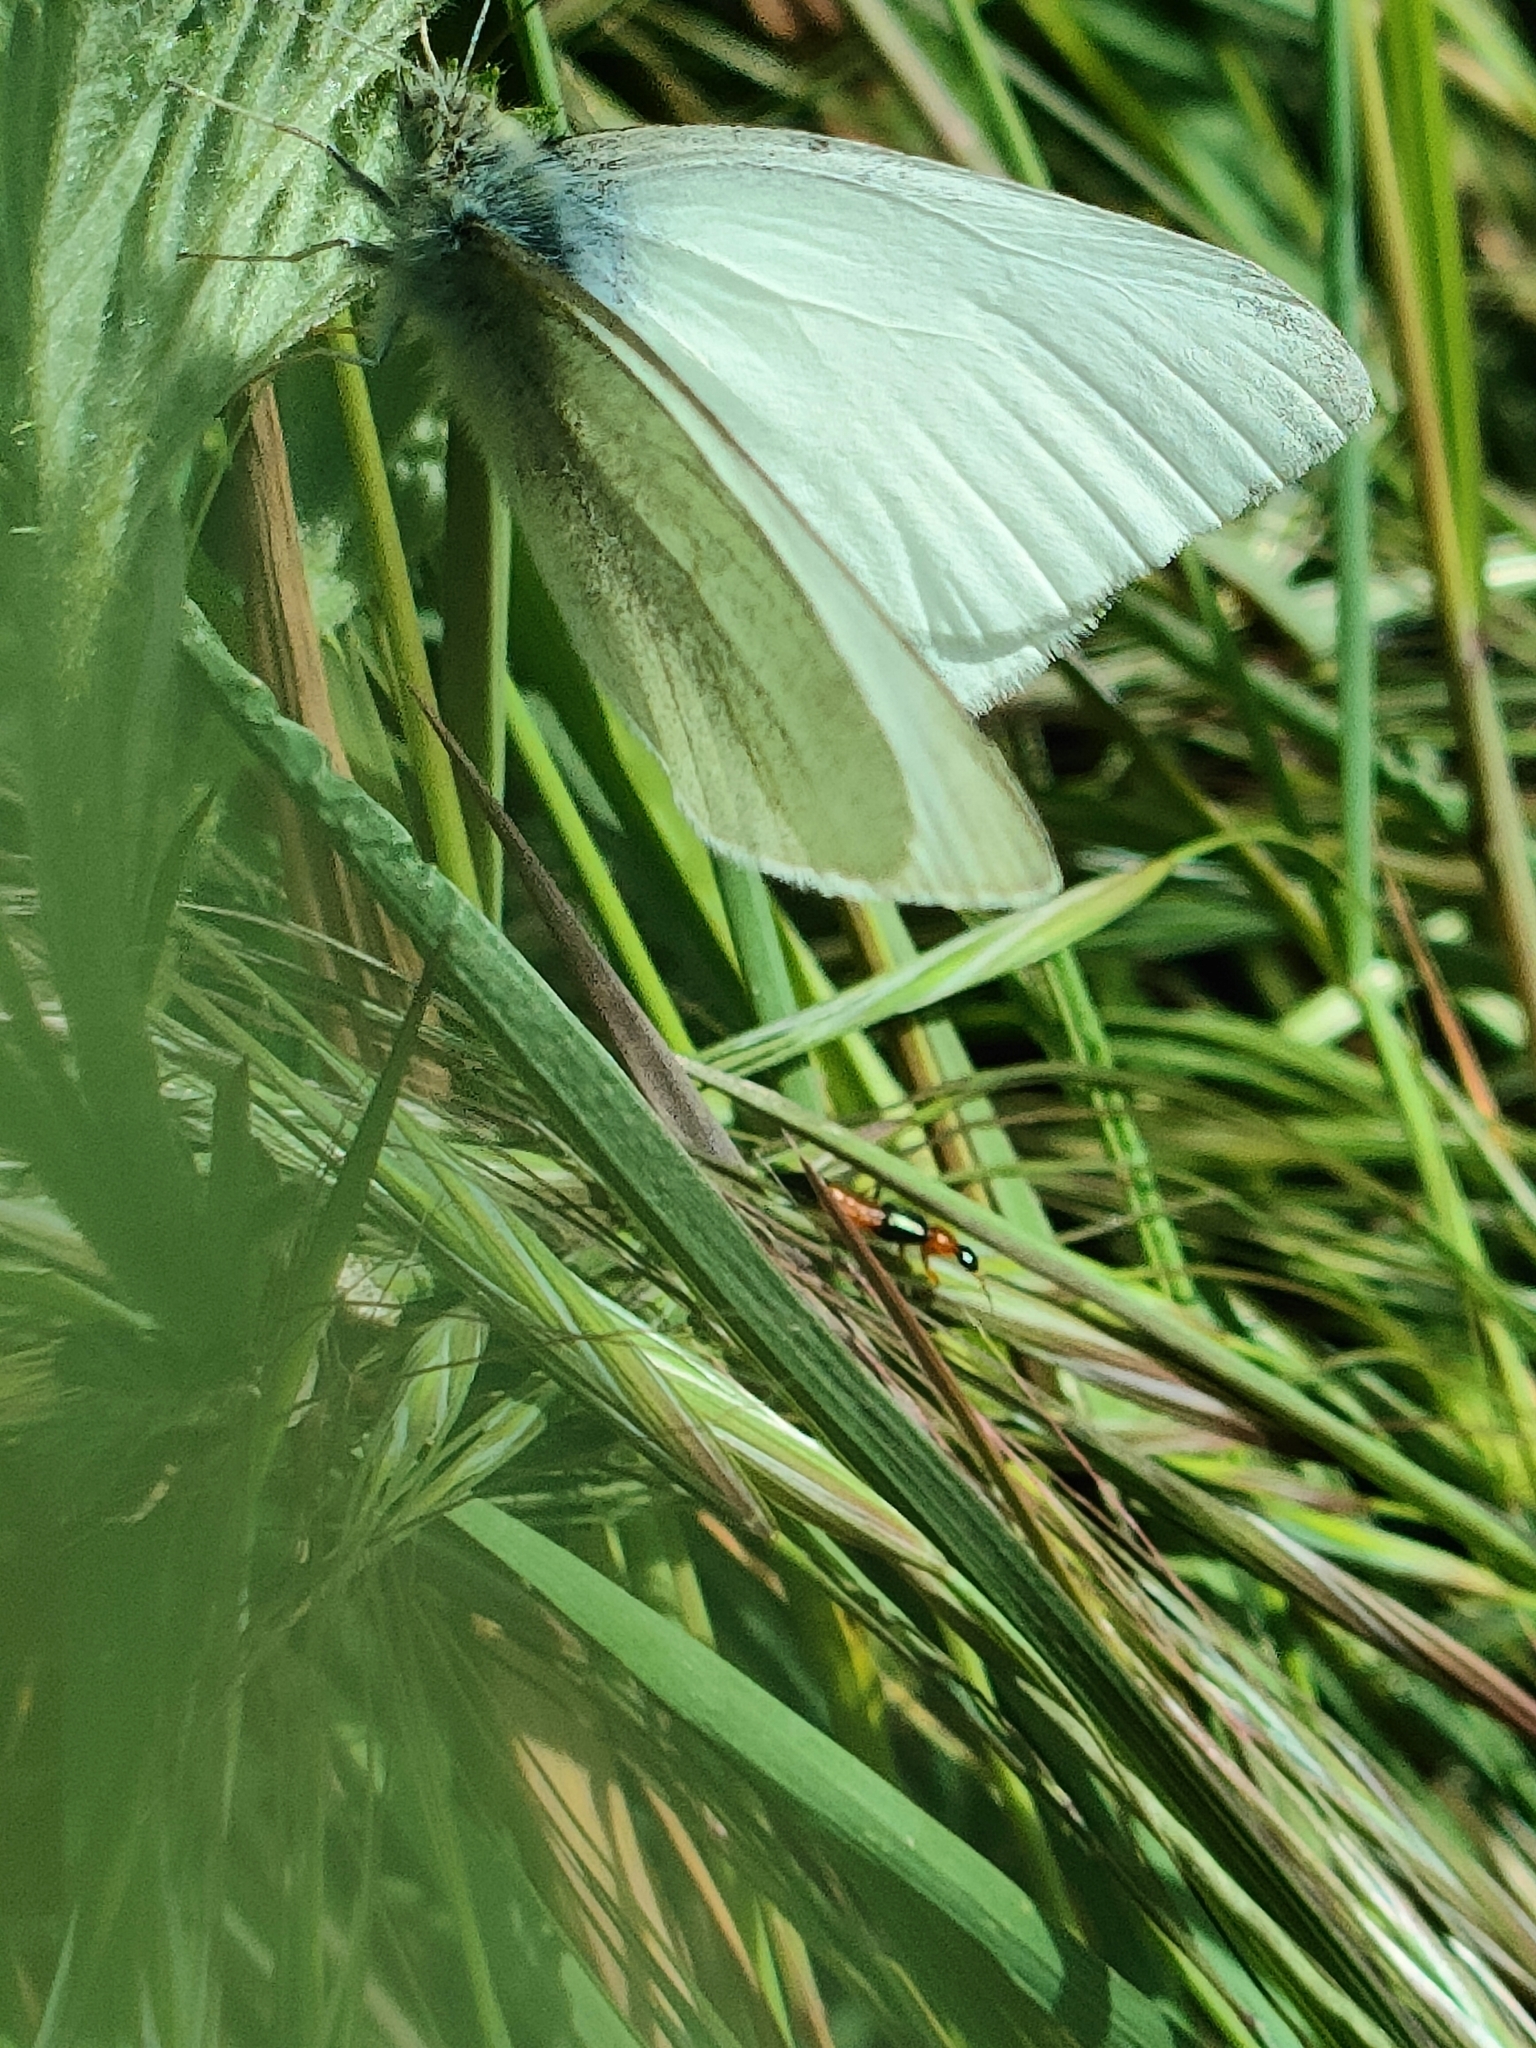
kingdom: Animalia
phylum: Arthropoda
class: Insecta
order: Lepidoptera
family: Pieridae
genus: Pieris
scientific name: Pieris rapae
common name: Small white
